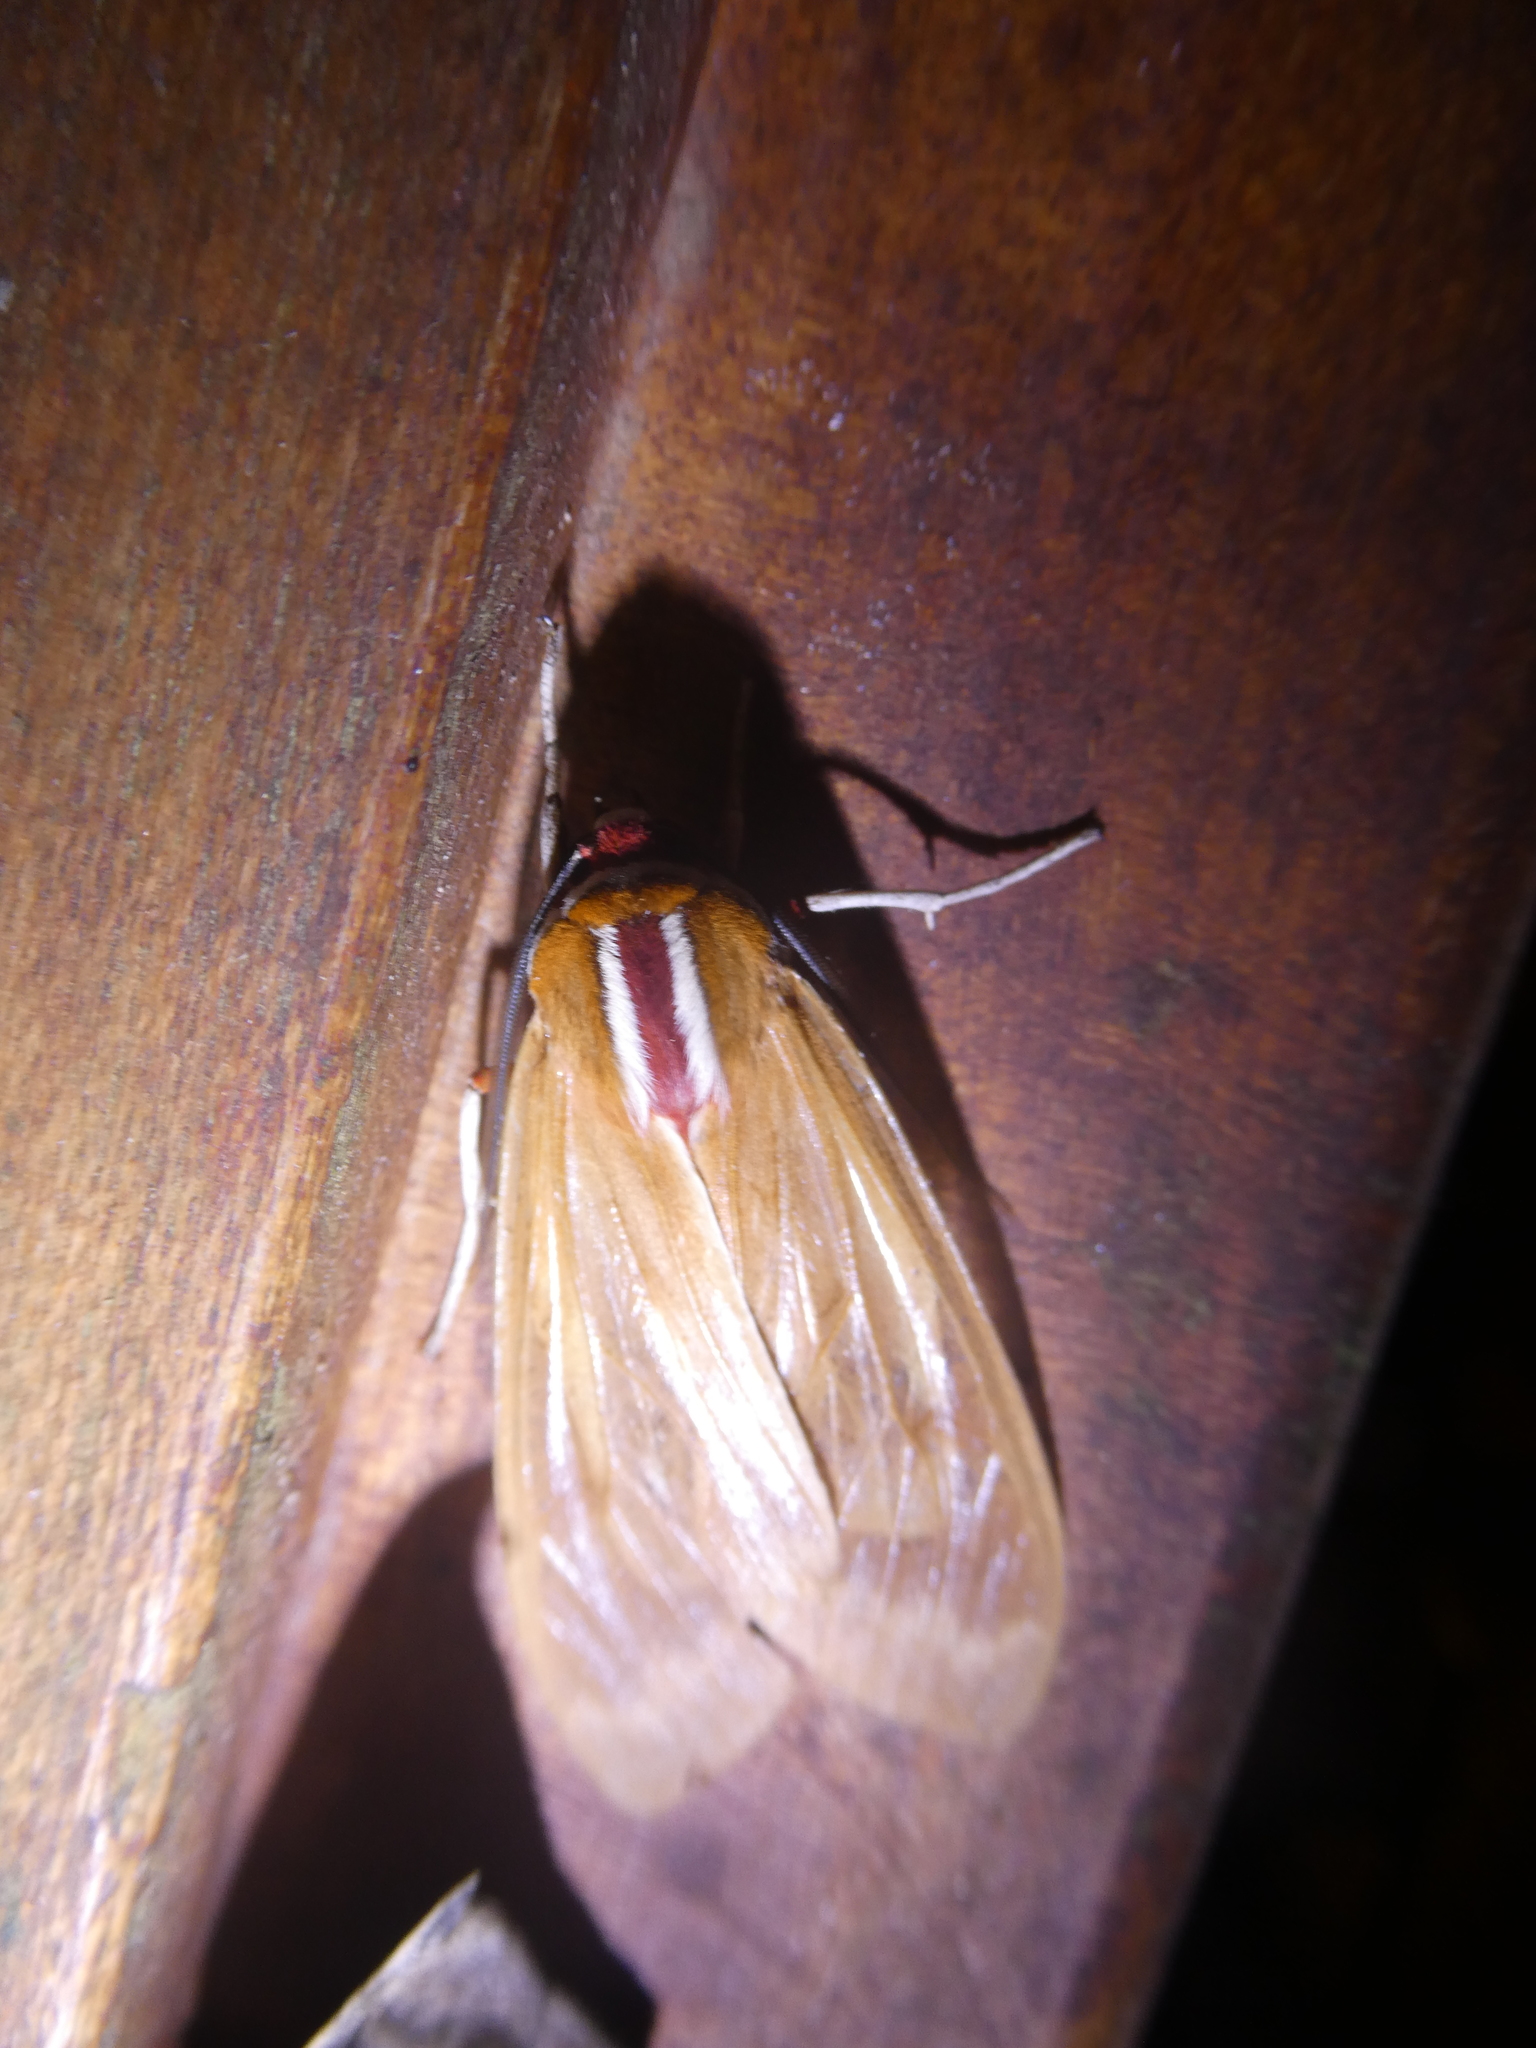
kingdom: Animalia
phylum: Arthropoda
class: Insecta
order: Lepidoptera
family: Erebidae
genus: Amastus
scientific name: Amastus coccinator
